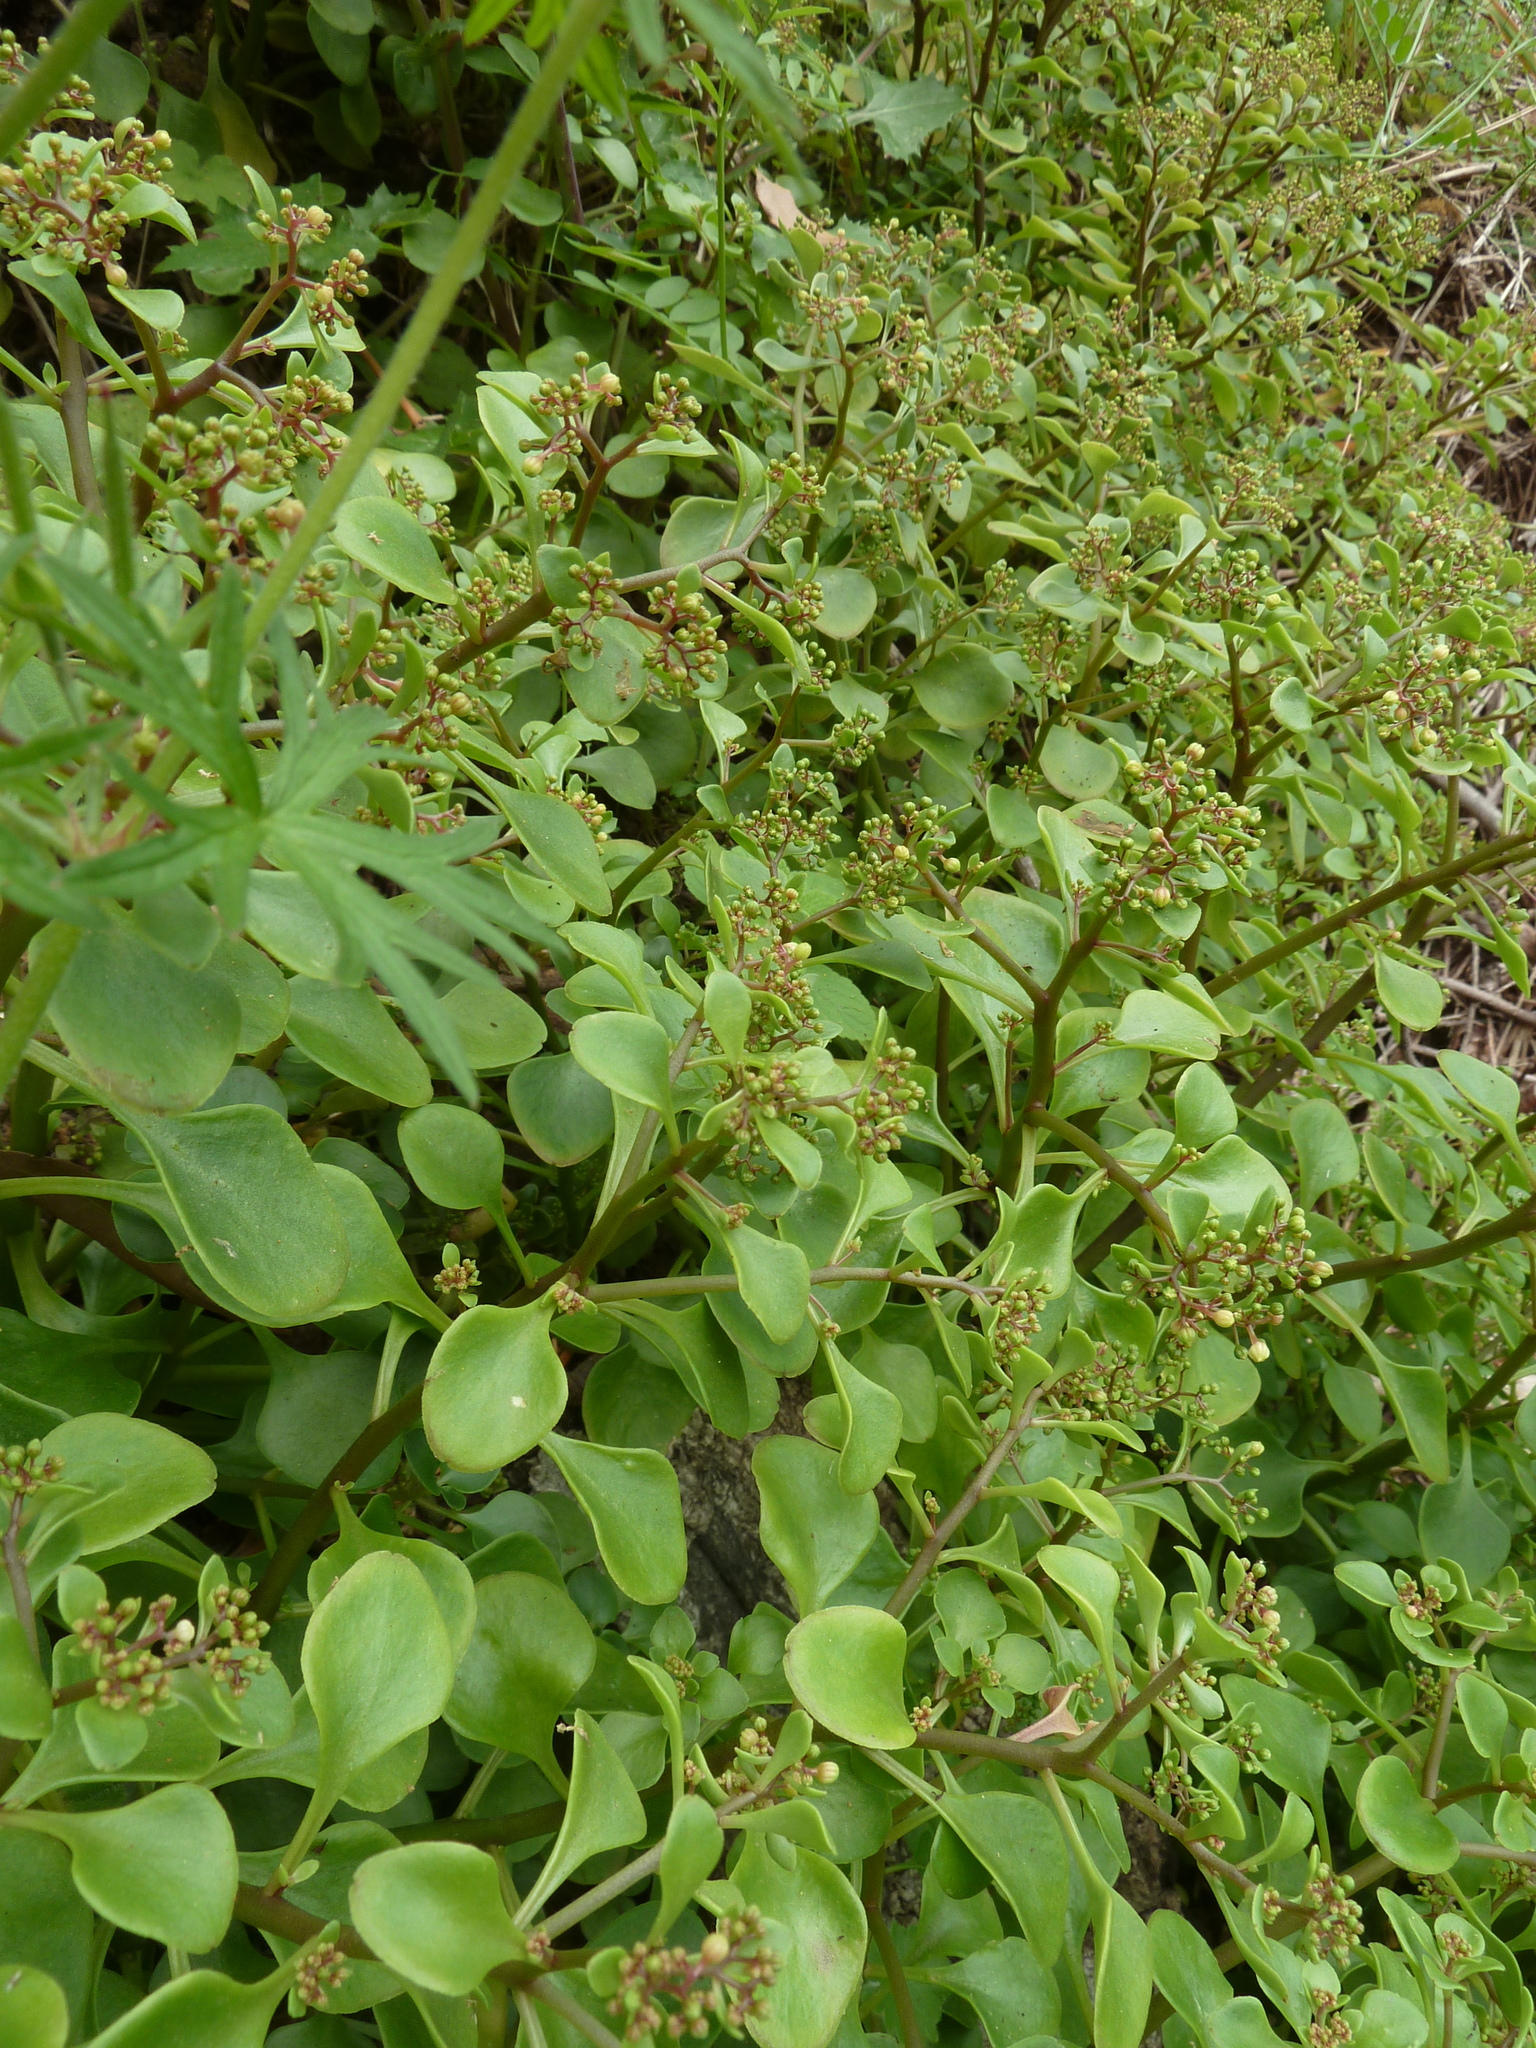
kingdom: Plantae
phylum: Tracheophyta
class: Magnoliopsida
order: Saxifragales
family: Crassulaceae
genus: Aichryson
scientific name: Aichryson divaricatum
